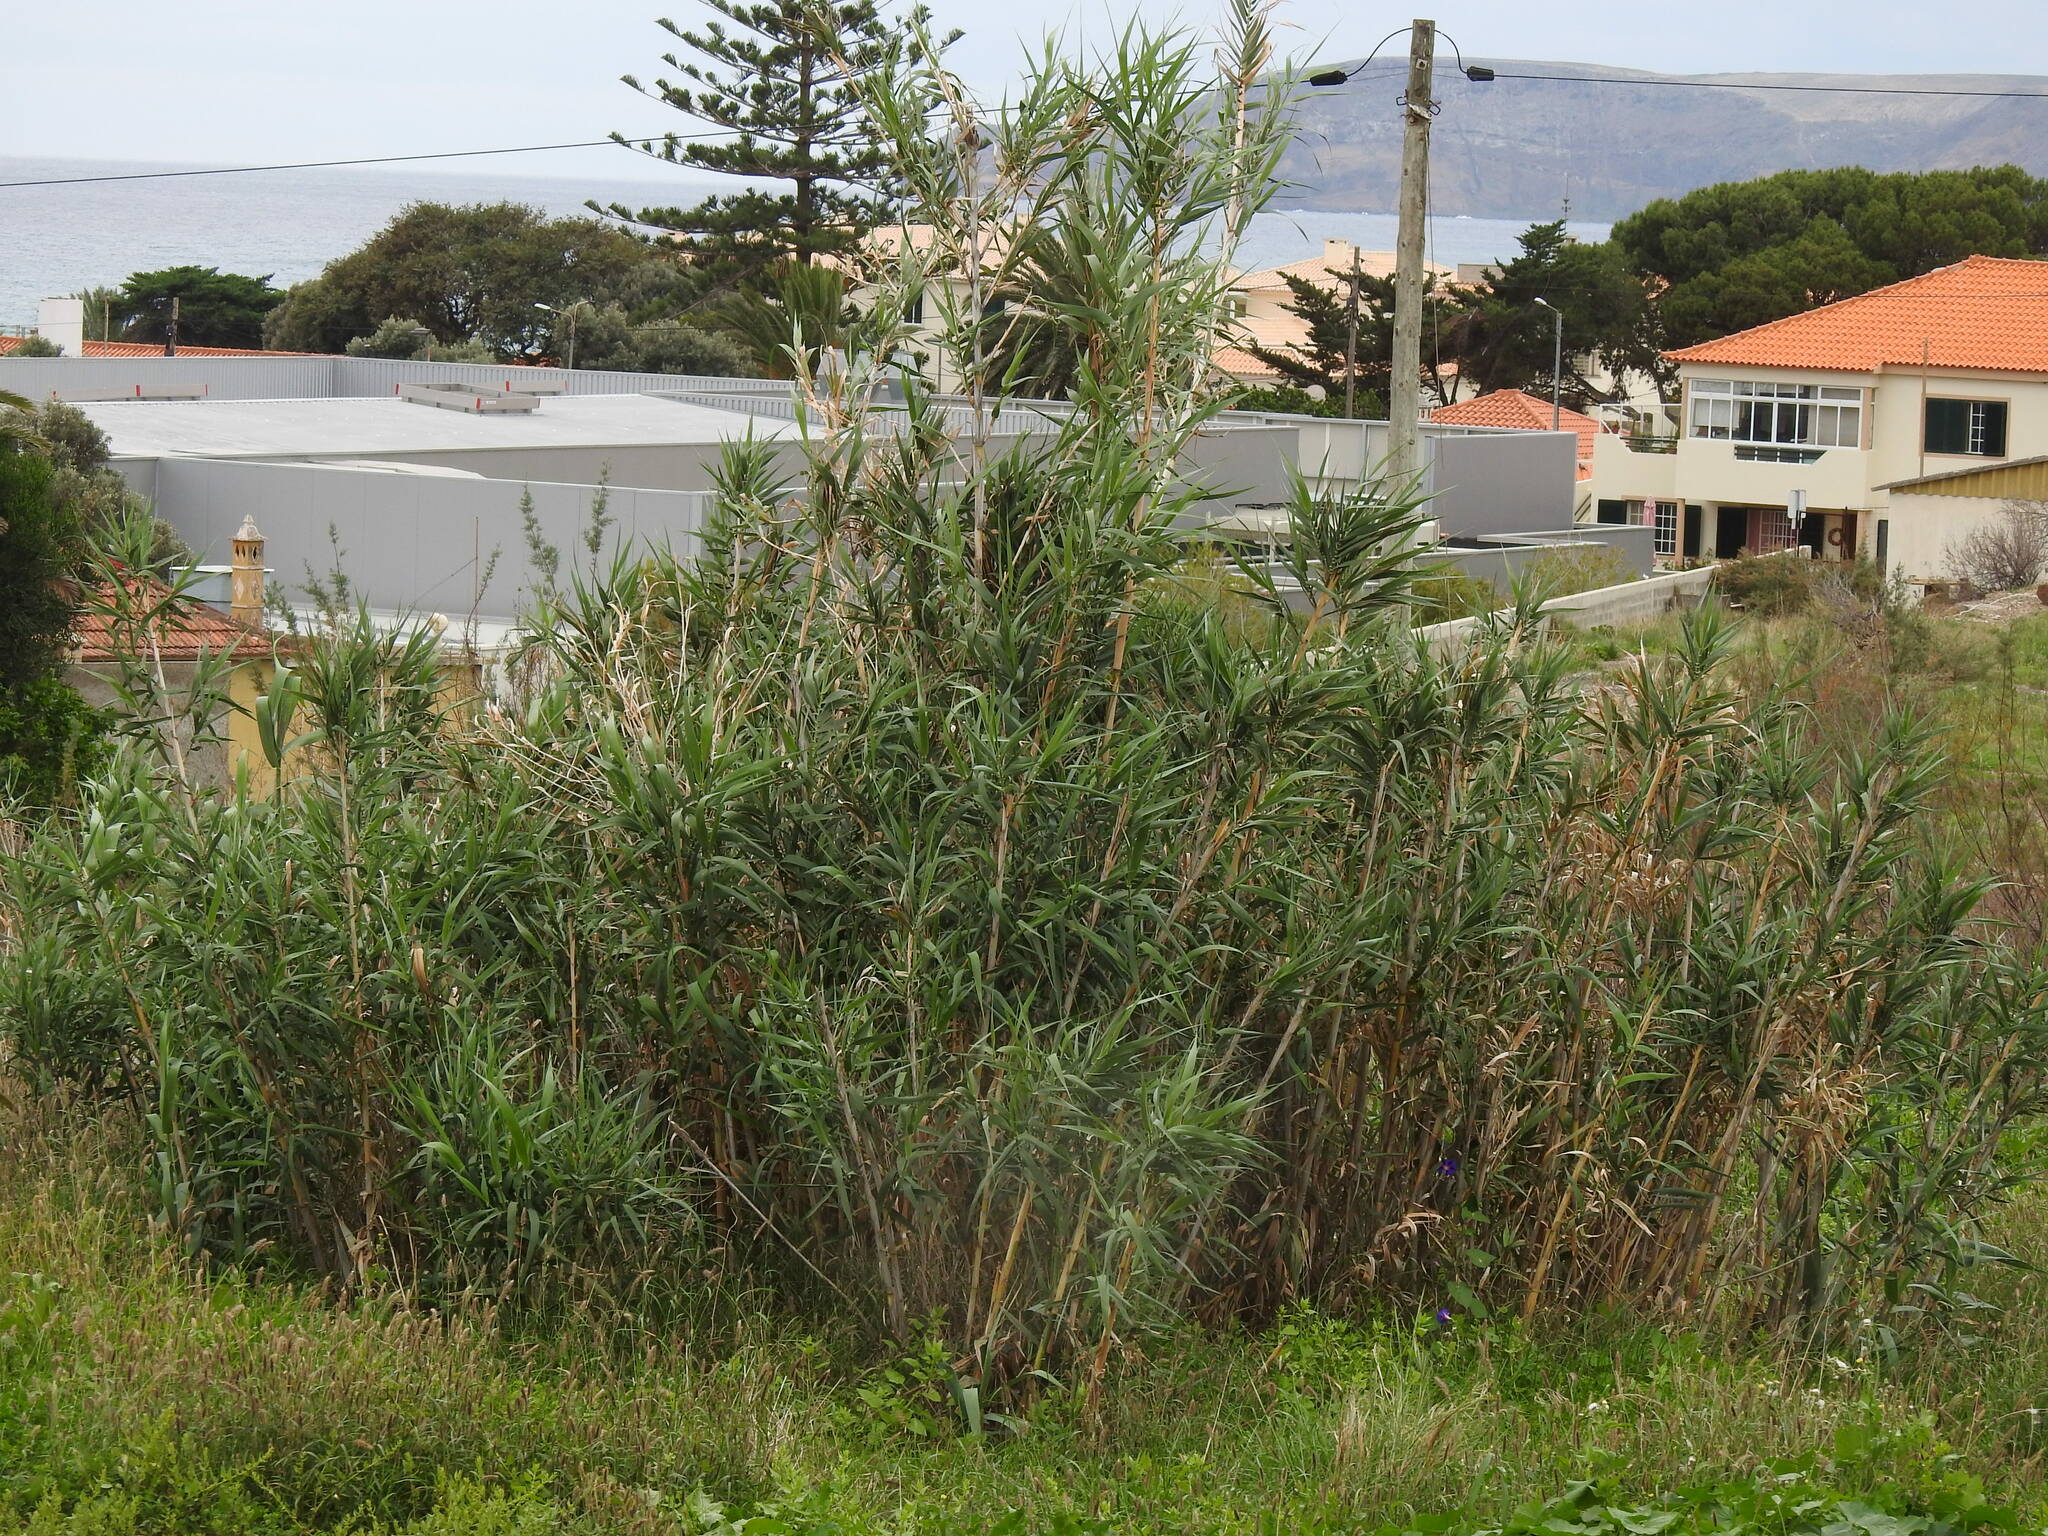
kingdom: Plantae
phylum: Tracheophyta
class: Liliopsida
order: Poales
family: Poaceae
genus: Arundo
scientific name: Arundo donax
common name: Giant reed
